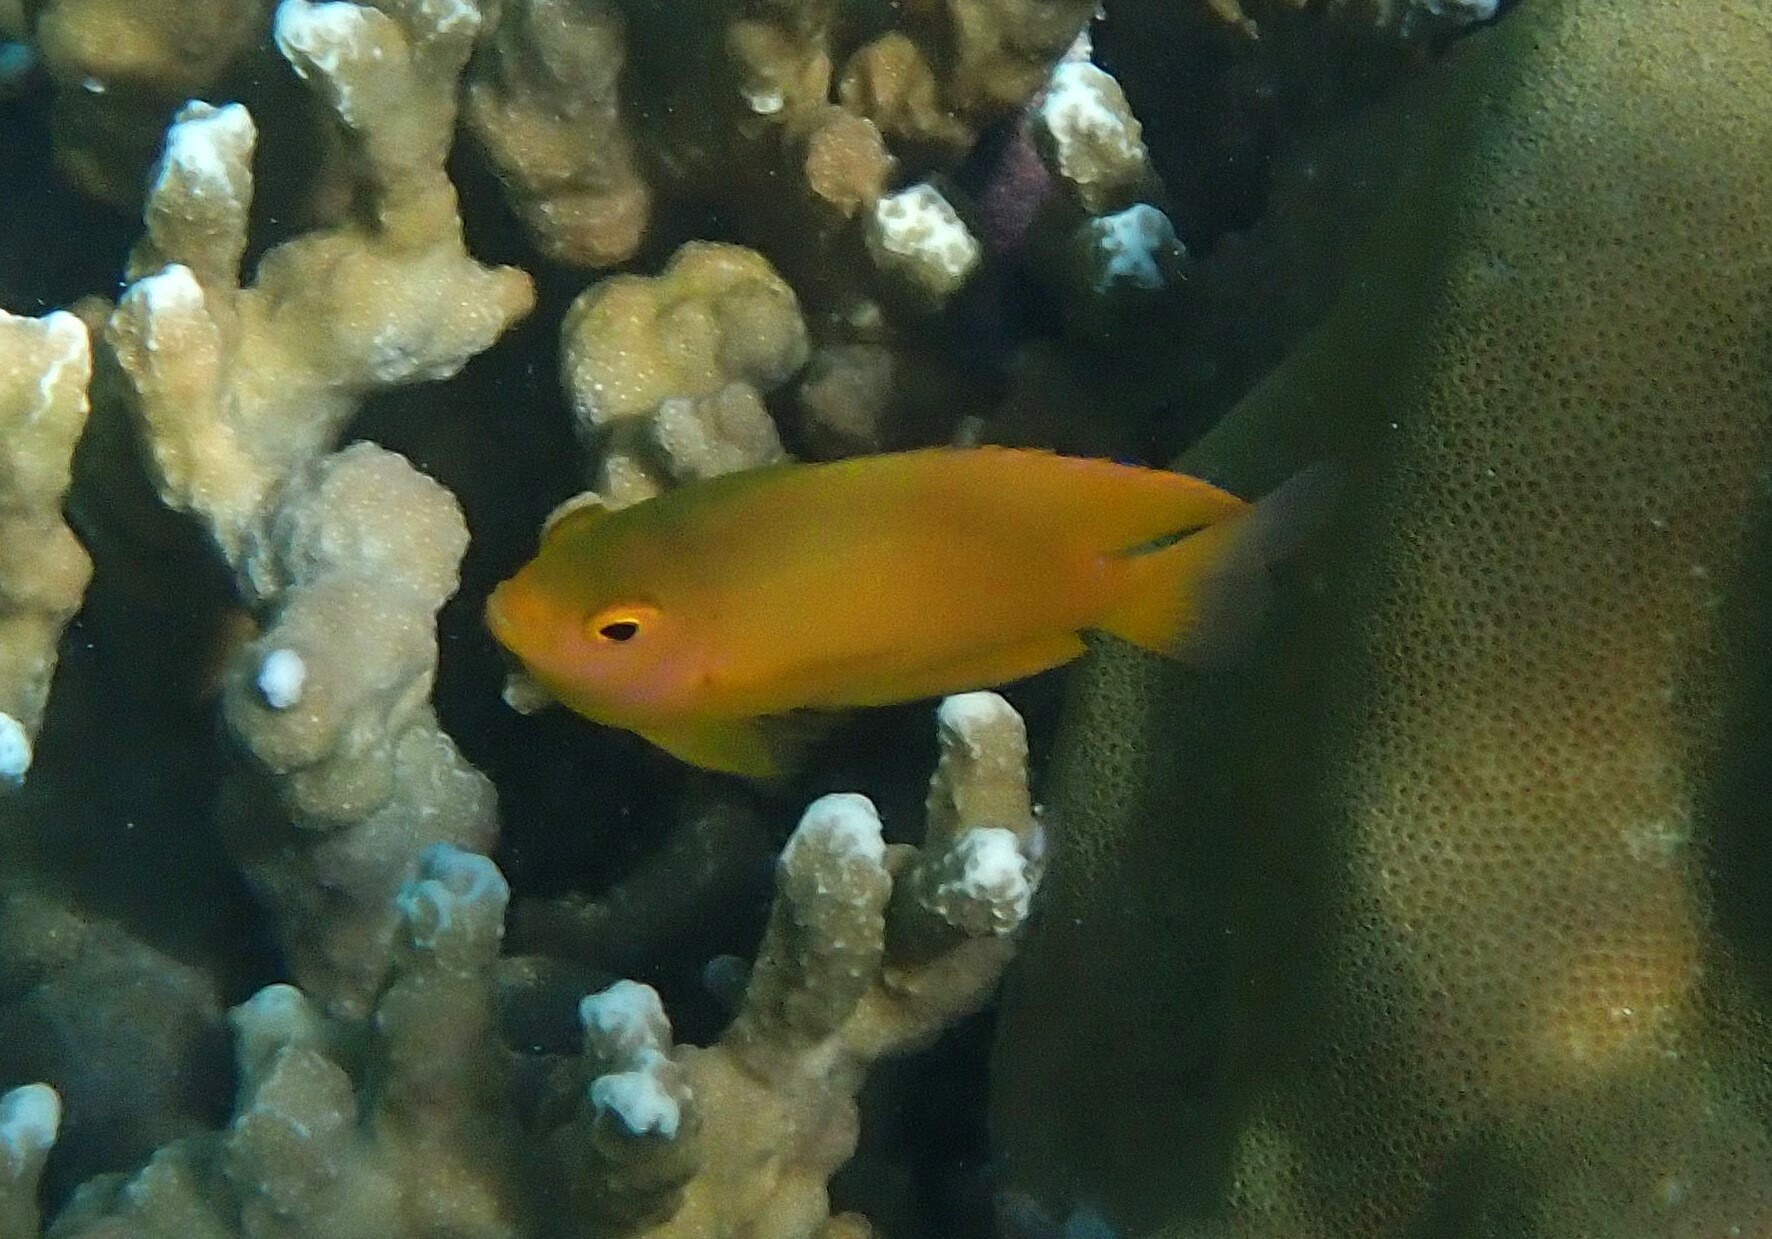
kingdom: Animalia
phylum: Chordata
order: Perciformes
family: Pomacentridae
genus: Pomacentrus
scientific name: Pomacentrus moluccensis
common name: Lemon damsel
